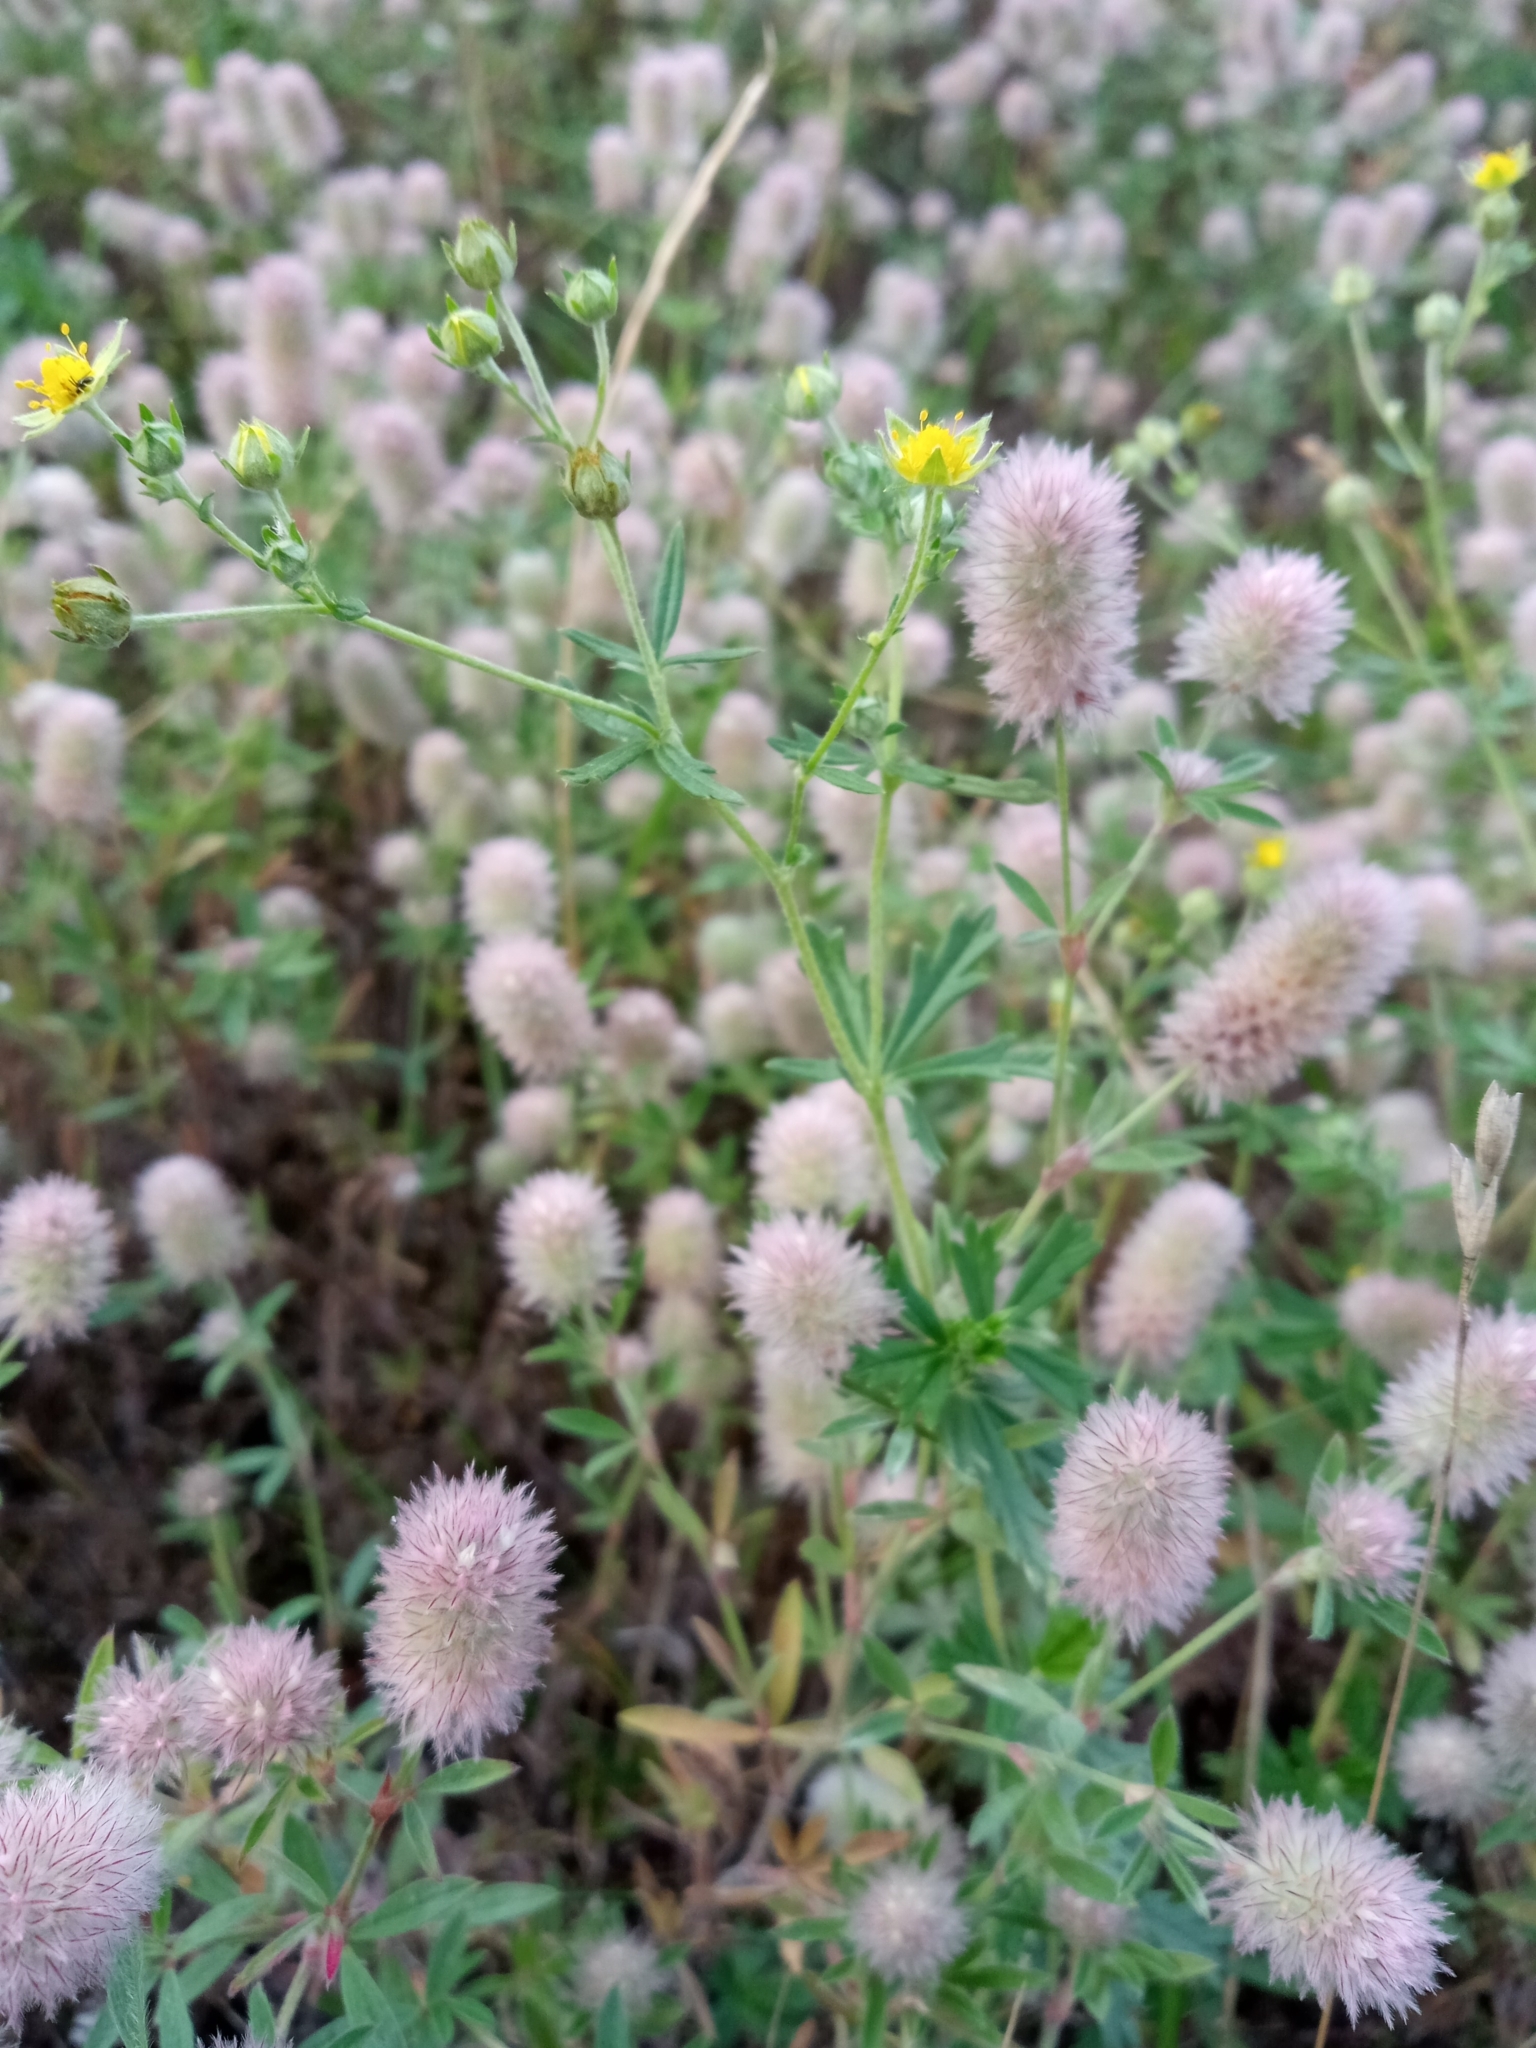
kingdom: Plantae
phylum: Tracheophyta
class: Magnoliopsida
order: Fabales
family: Fabaceae
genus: Trifolium
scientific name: Trifolium arvense
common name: Hare's-foot clover
